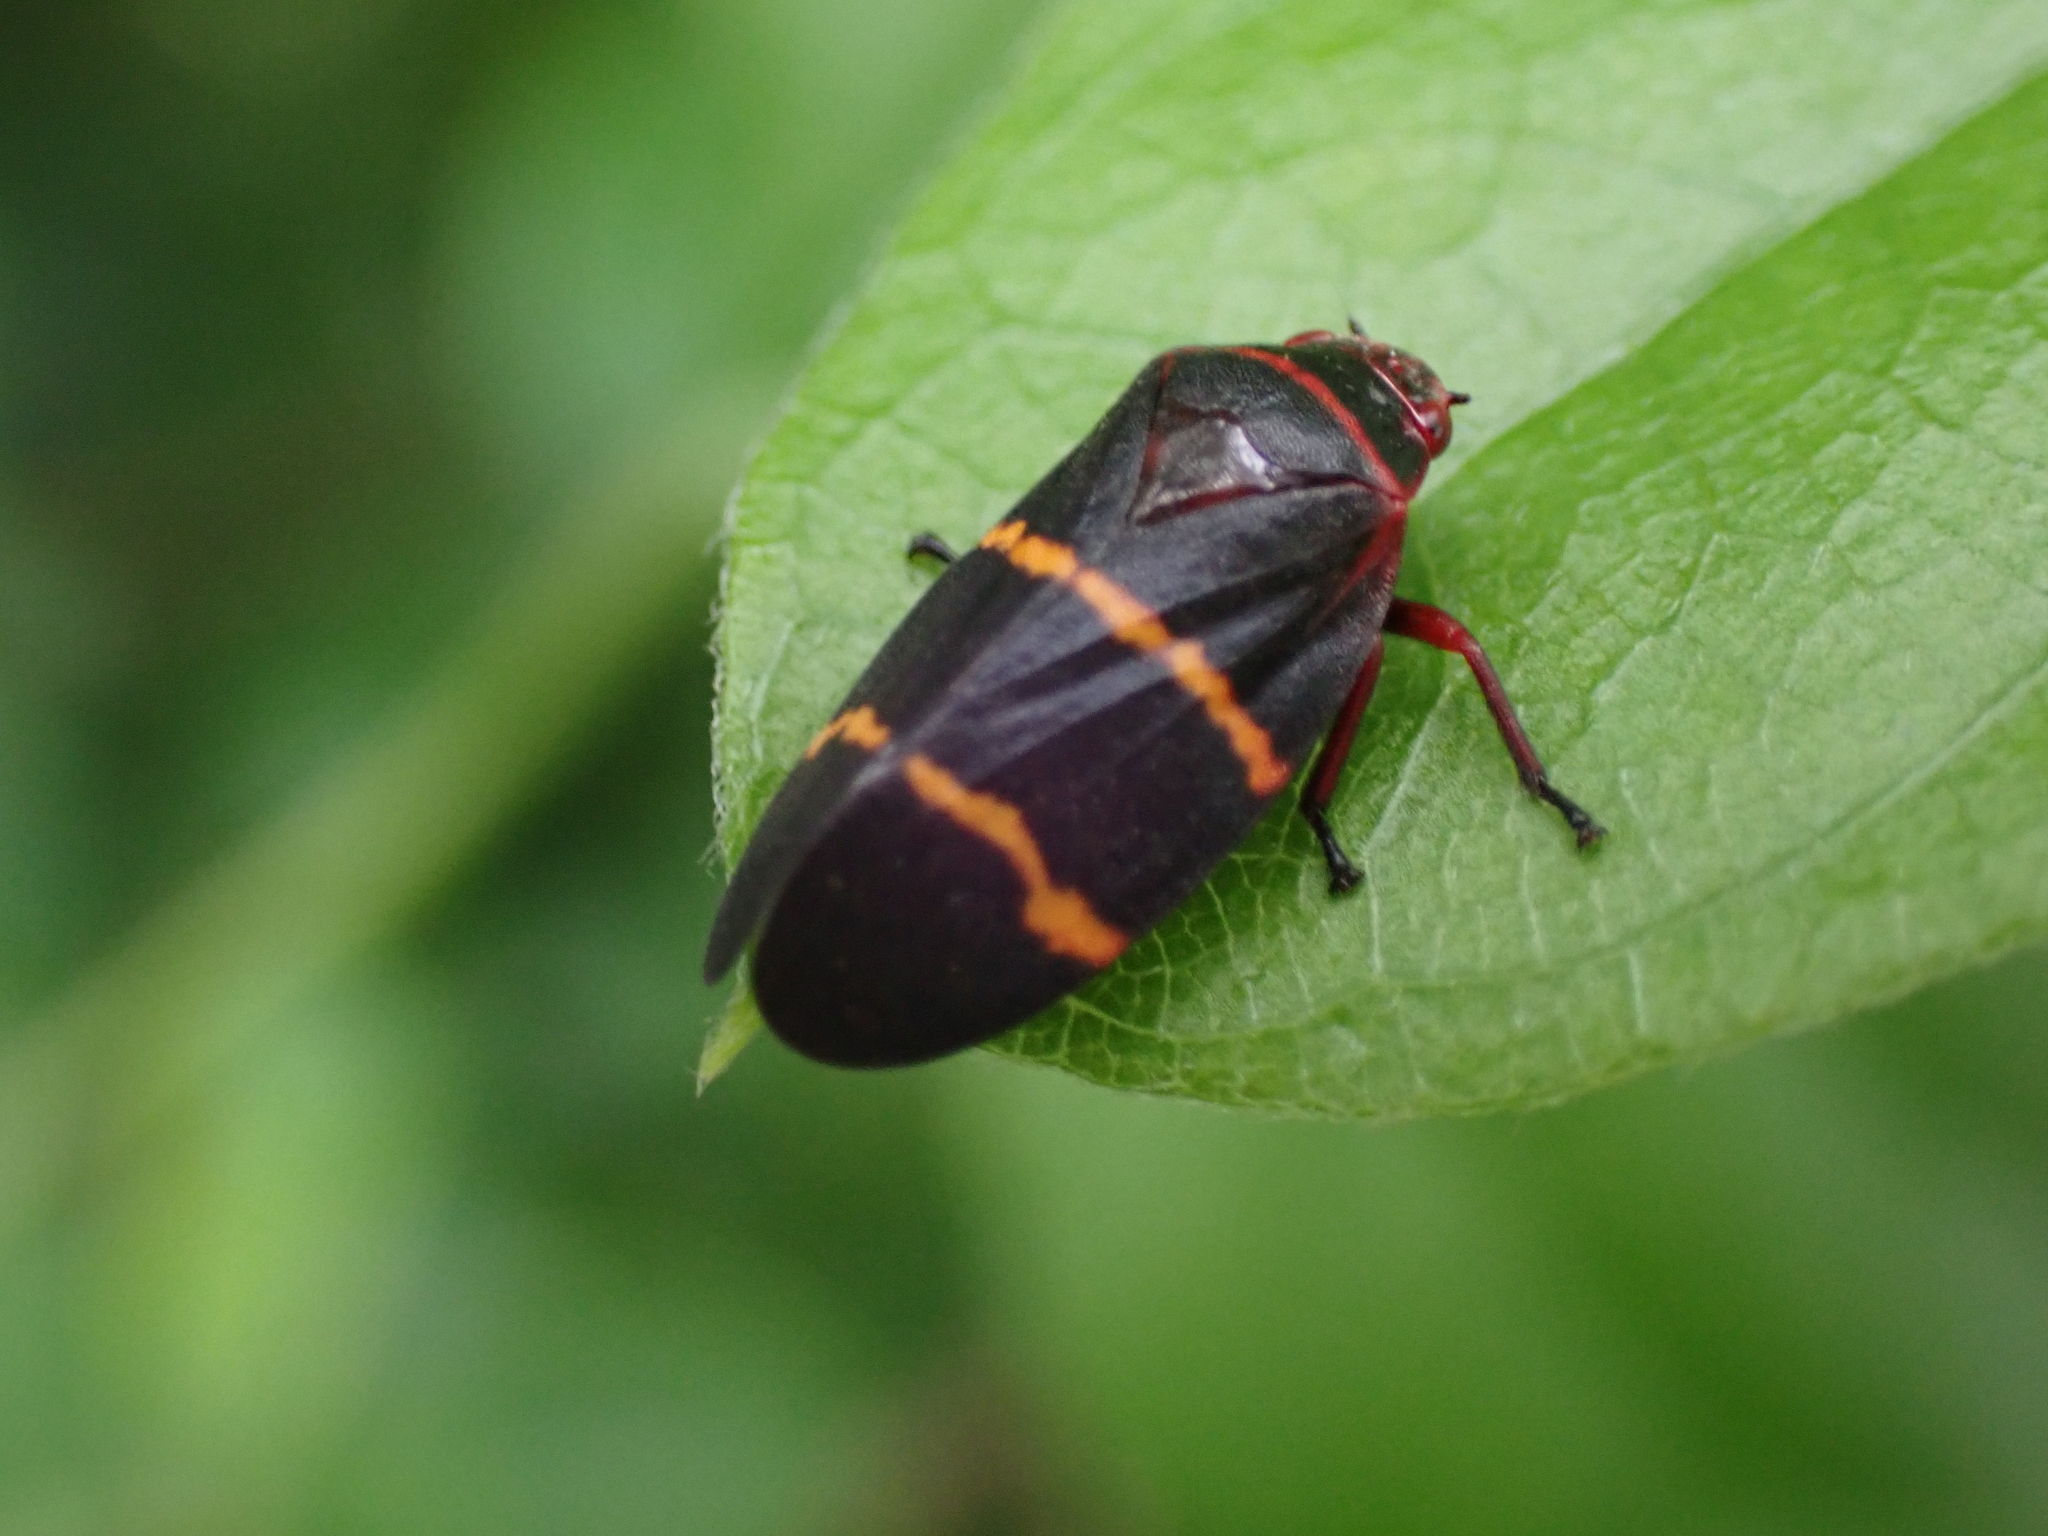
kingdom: Animalia
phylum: Arthropoda
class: Insecta
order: Hemiptera
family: Cercopidae
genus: Prosapia
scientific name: Prosapia bicincta
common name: Twolined spittlebug
